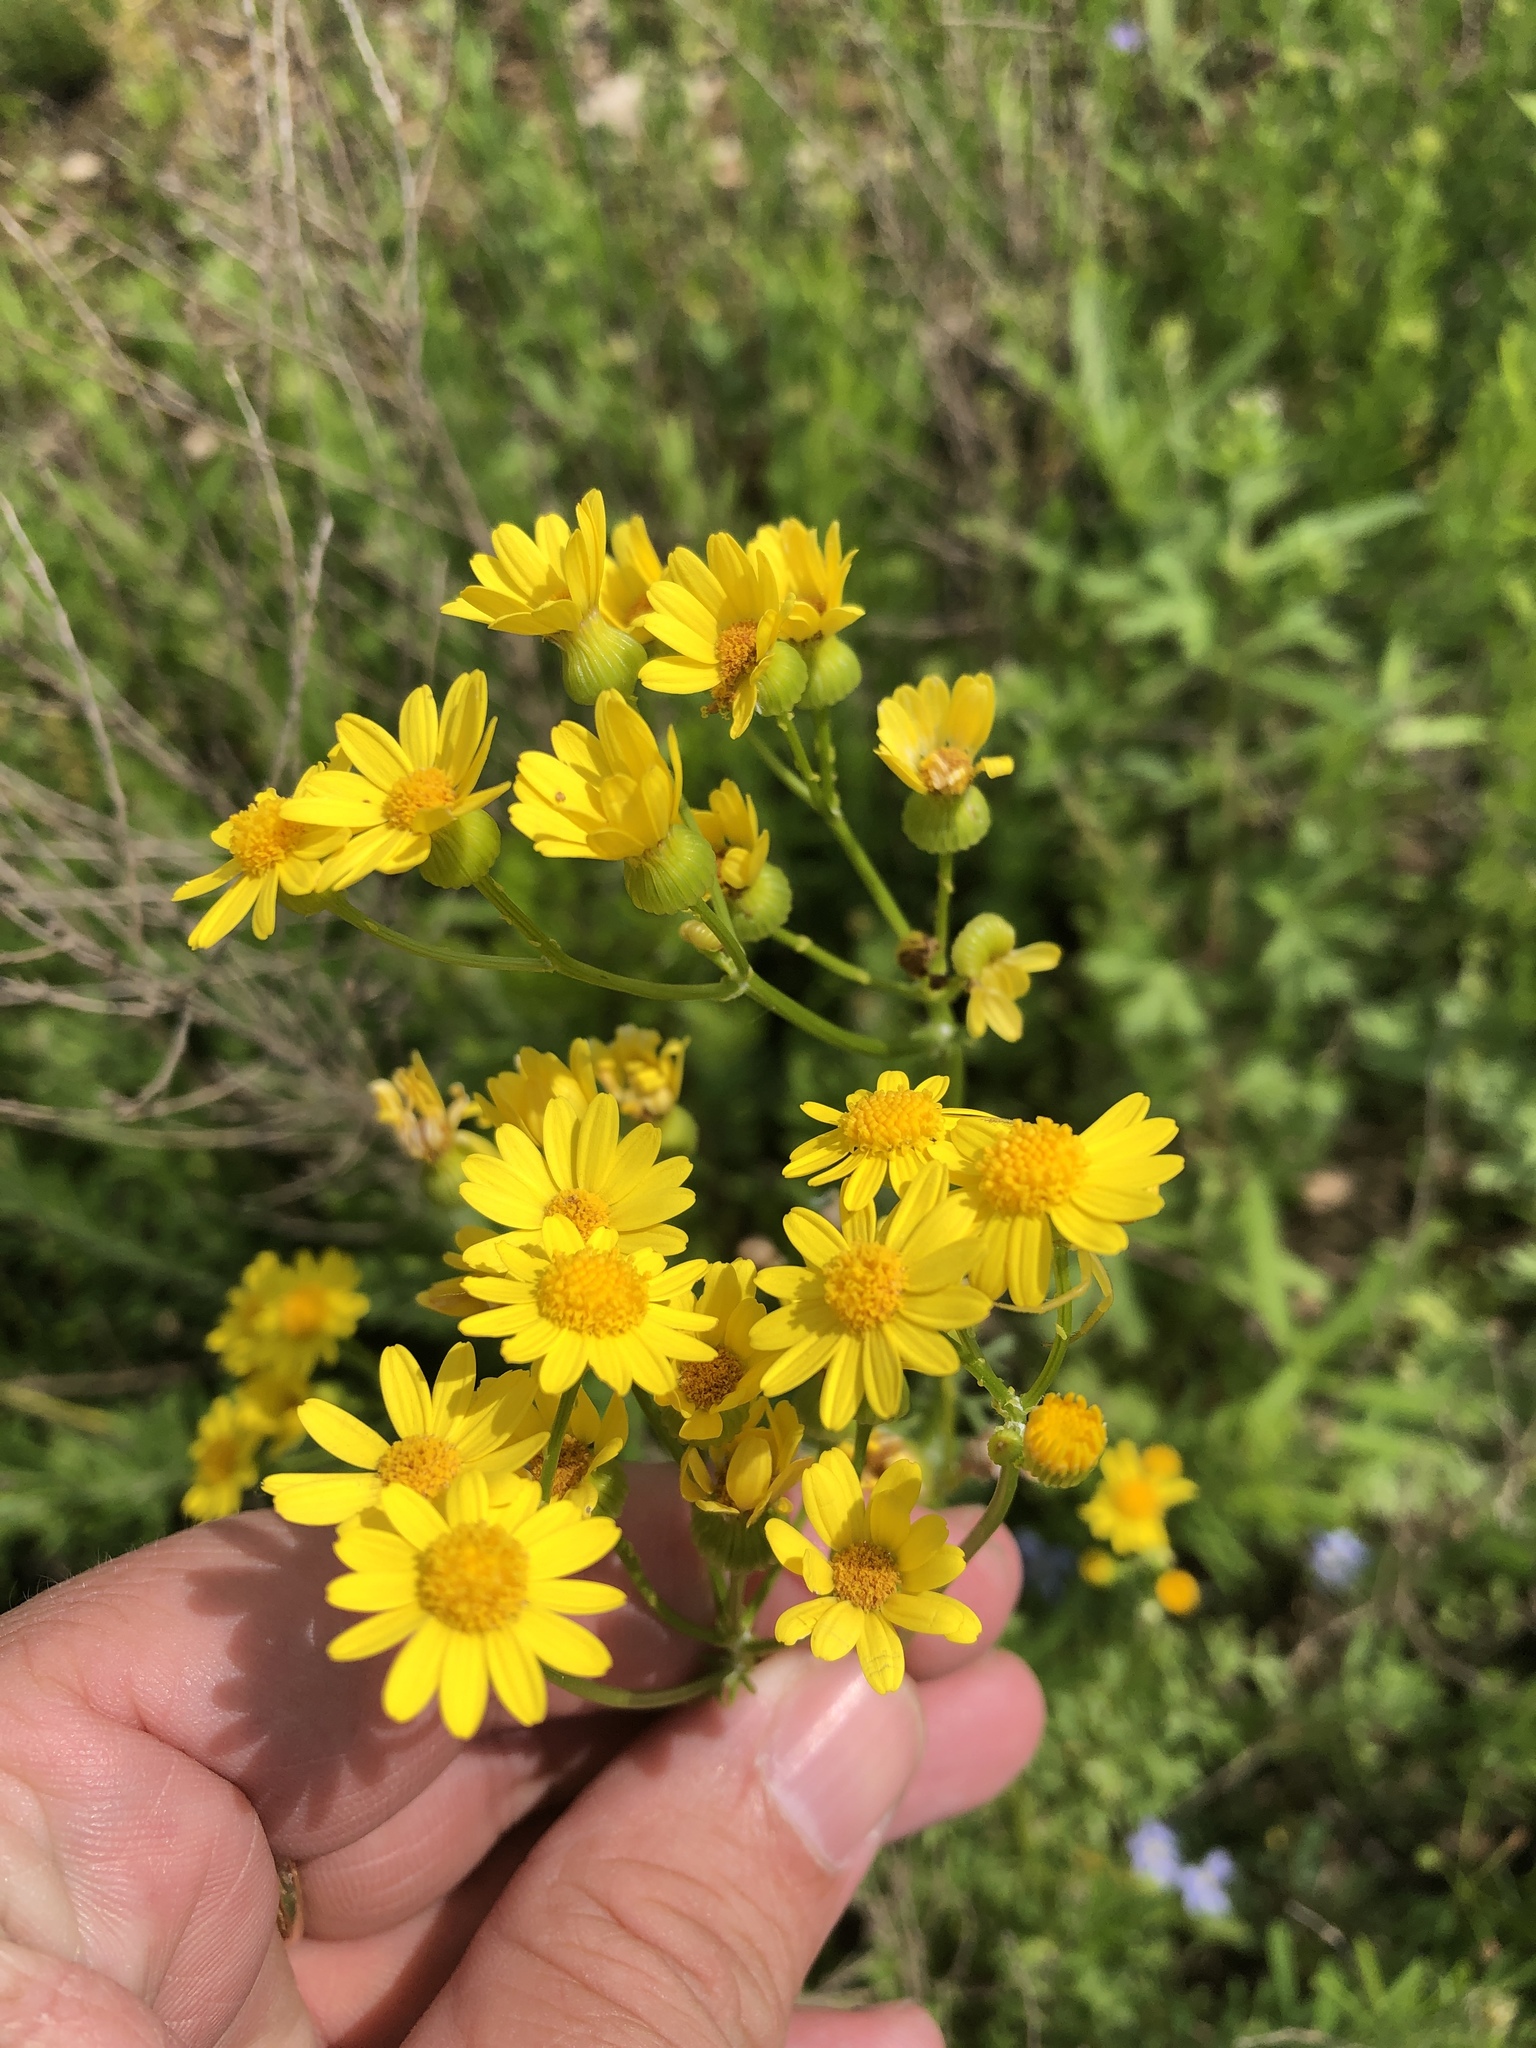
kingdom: Plantae
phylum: Tracheophyta
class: Magnoliopsida
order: Asterales
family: Asteraceae
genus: Packera
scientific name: Packera tampicana
